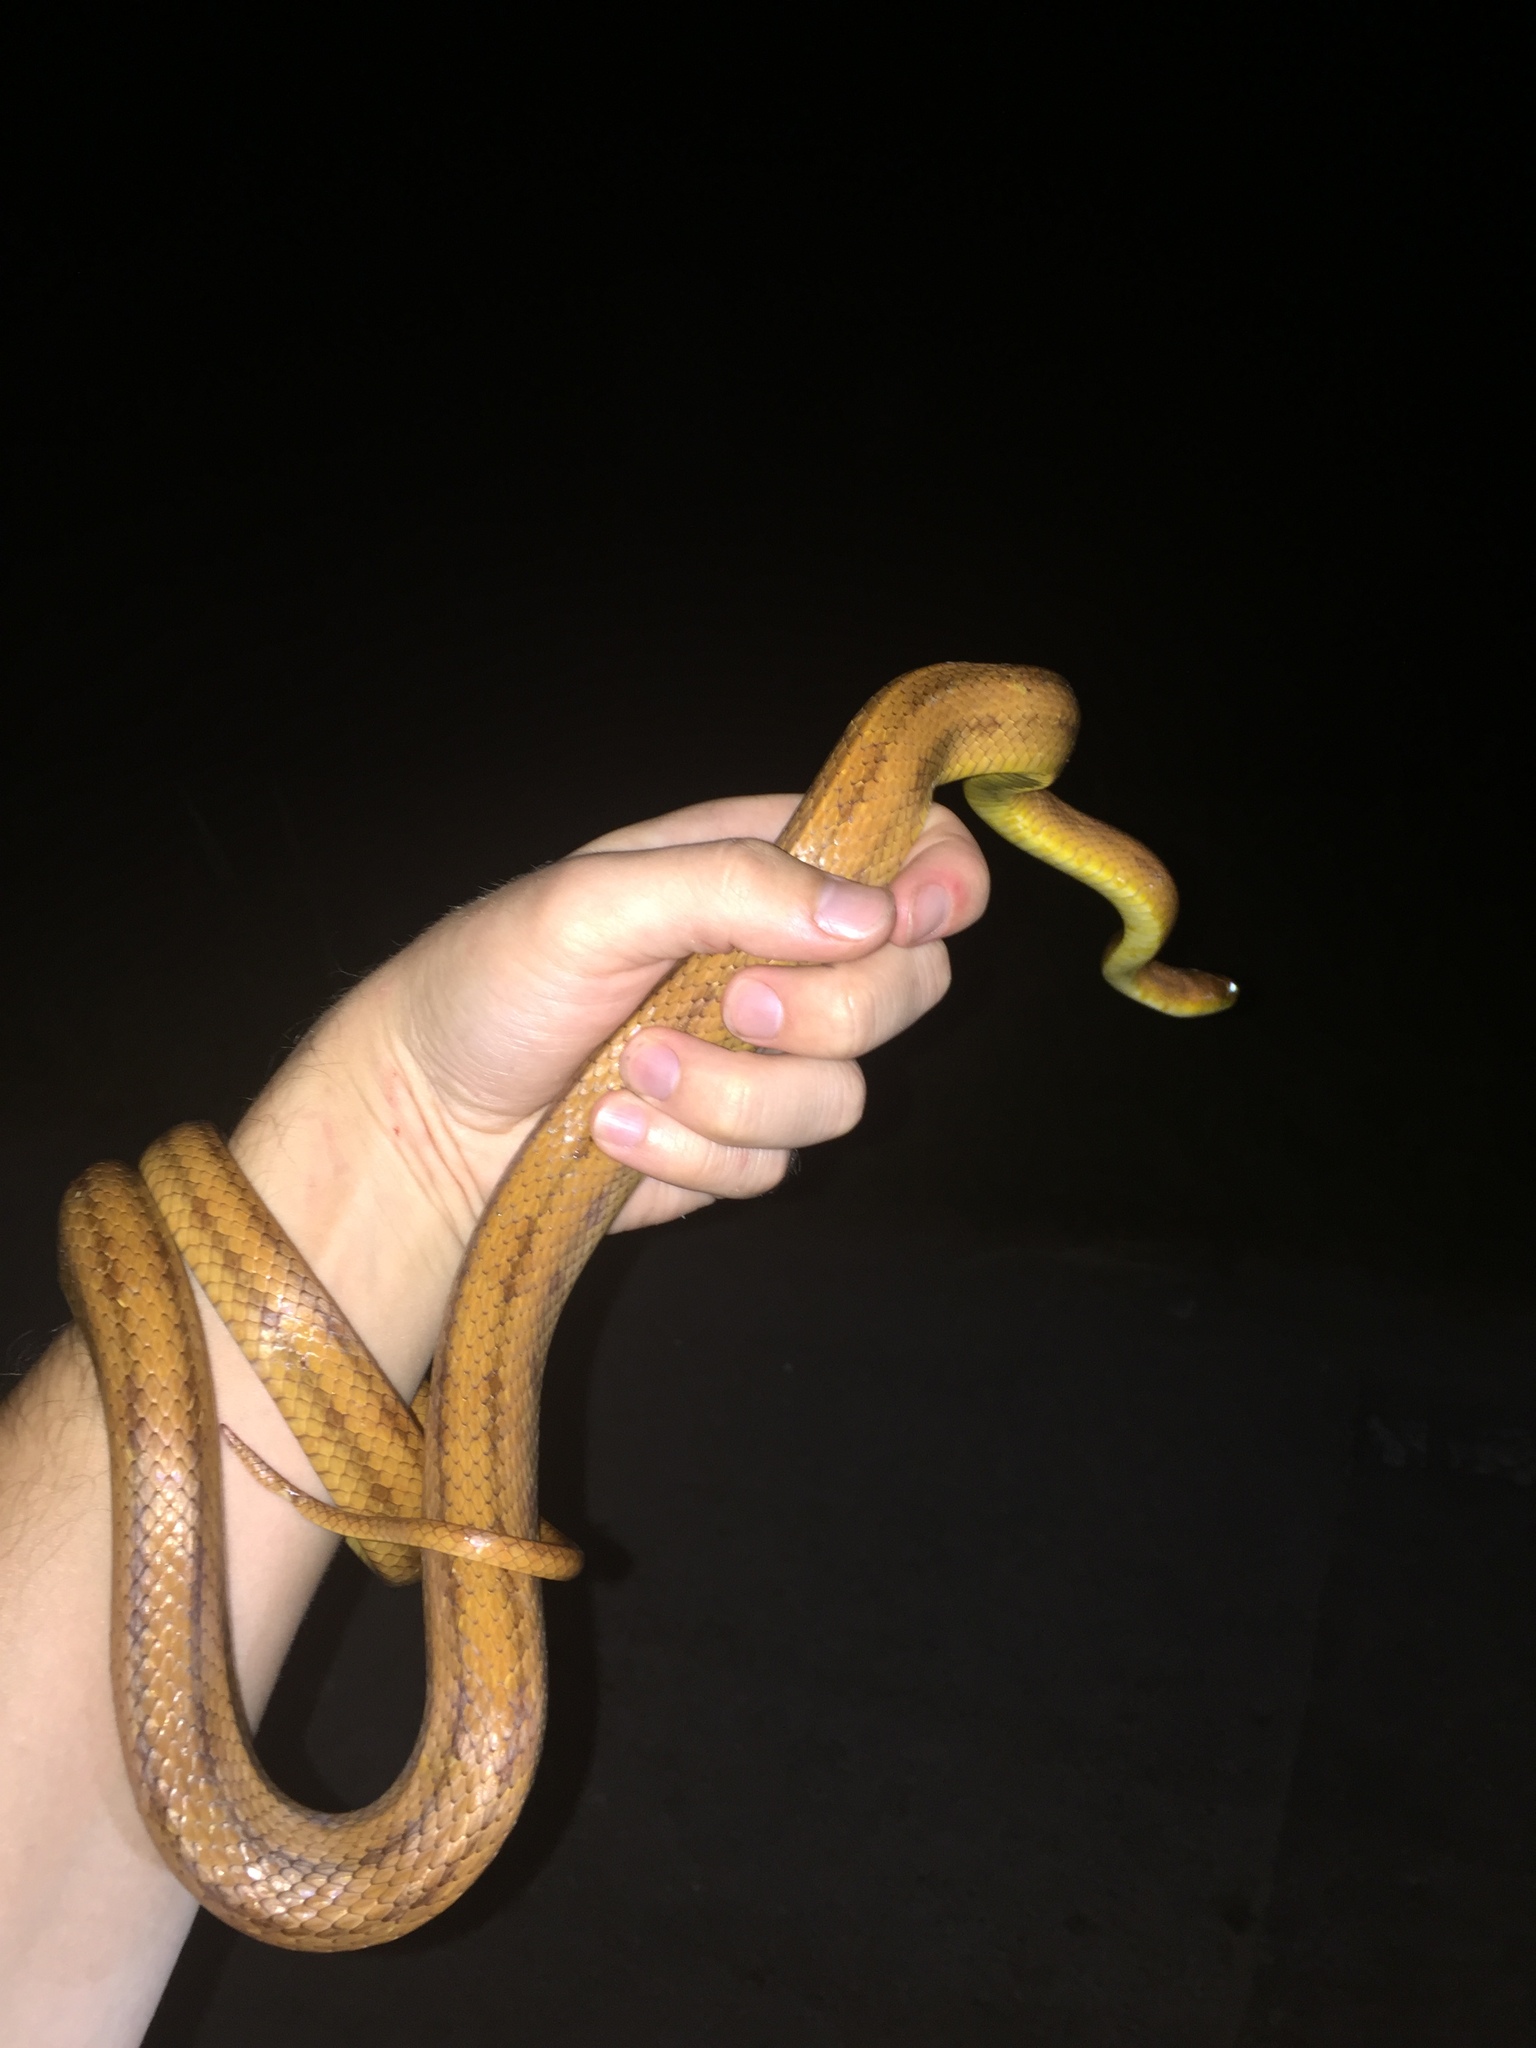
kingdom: Animalia
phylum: Chordata
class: Squamata
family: Colubridae
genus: Pantherophis
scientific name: Pantherophis alleghaniensis
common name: Eastern rat snake
